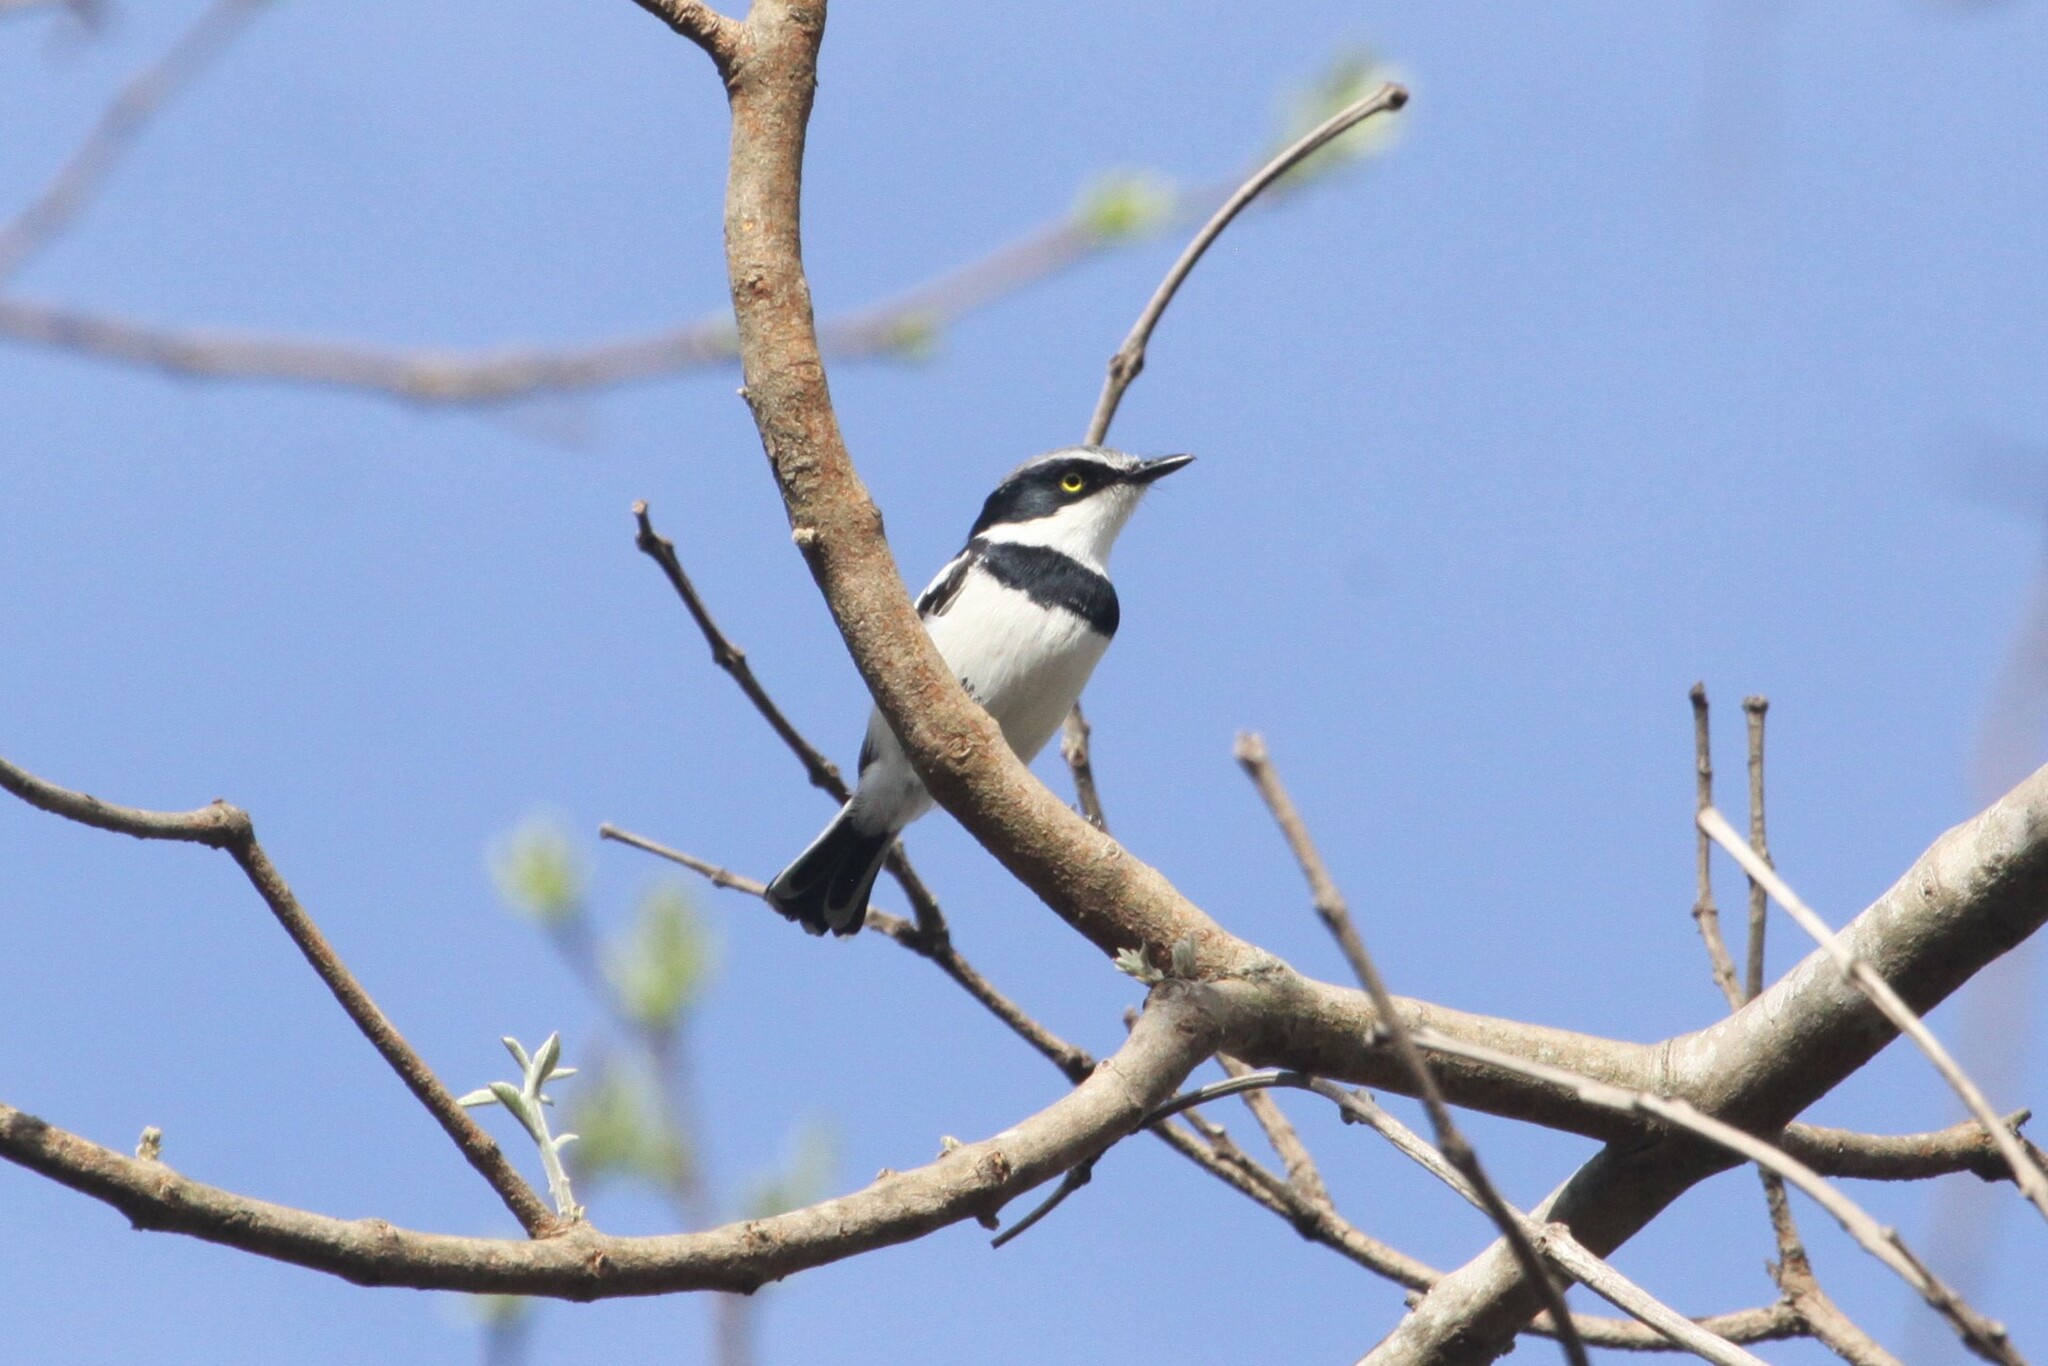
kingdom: Animalia
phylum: Chordata
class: Aves
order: Passeriformes
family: Platysteiridae
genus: Batis
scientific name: Batis soror
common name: Pale batis
